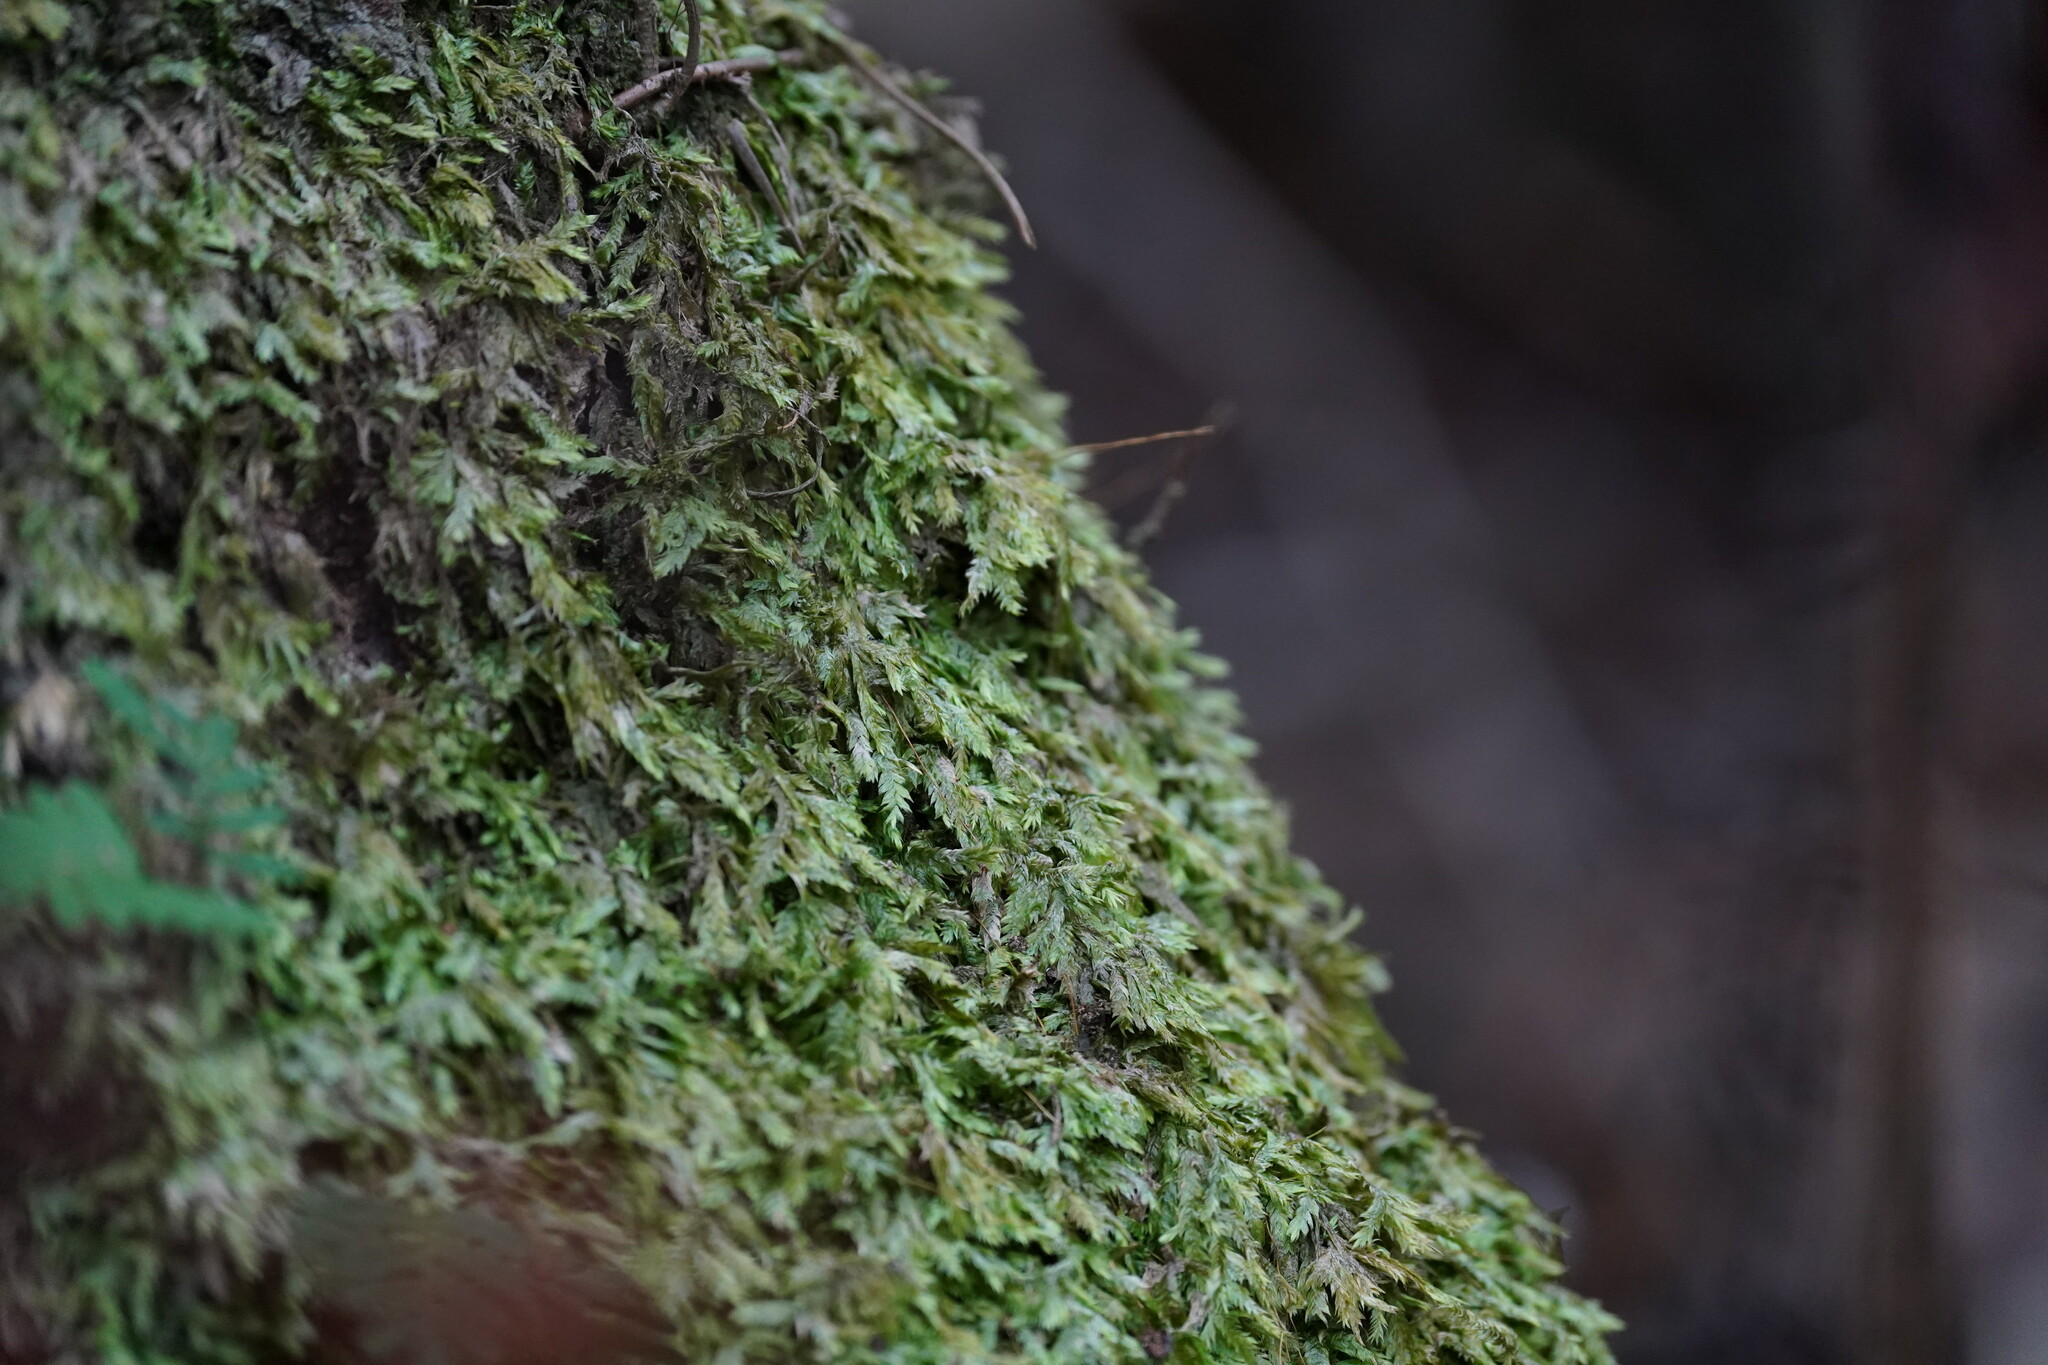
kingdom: Plantae
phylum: Bryophyta
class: Bryopsida
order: Hypnales
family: Pylaisiadelphaceae
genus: Isopterygium
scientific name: Isopterygium tenerum
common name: Isopterygium moss
